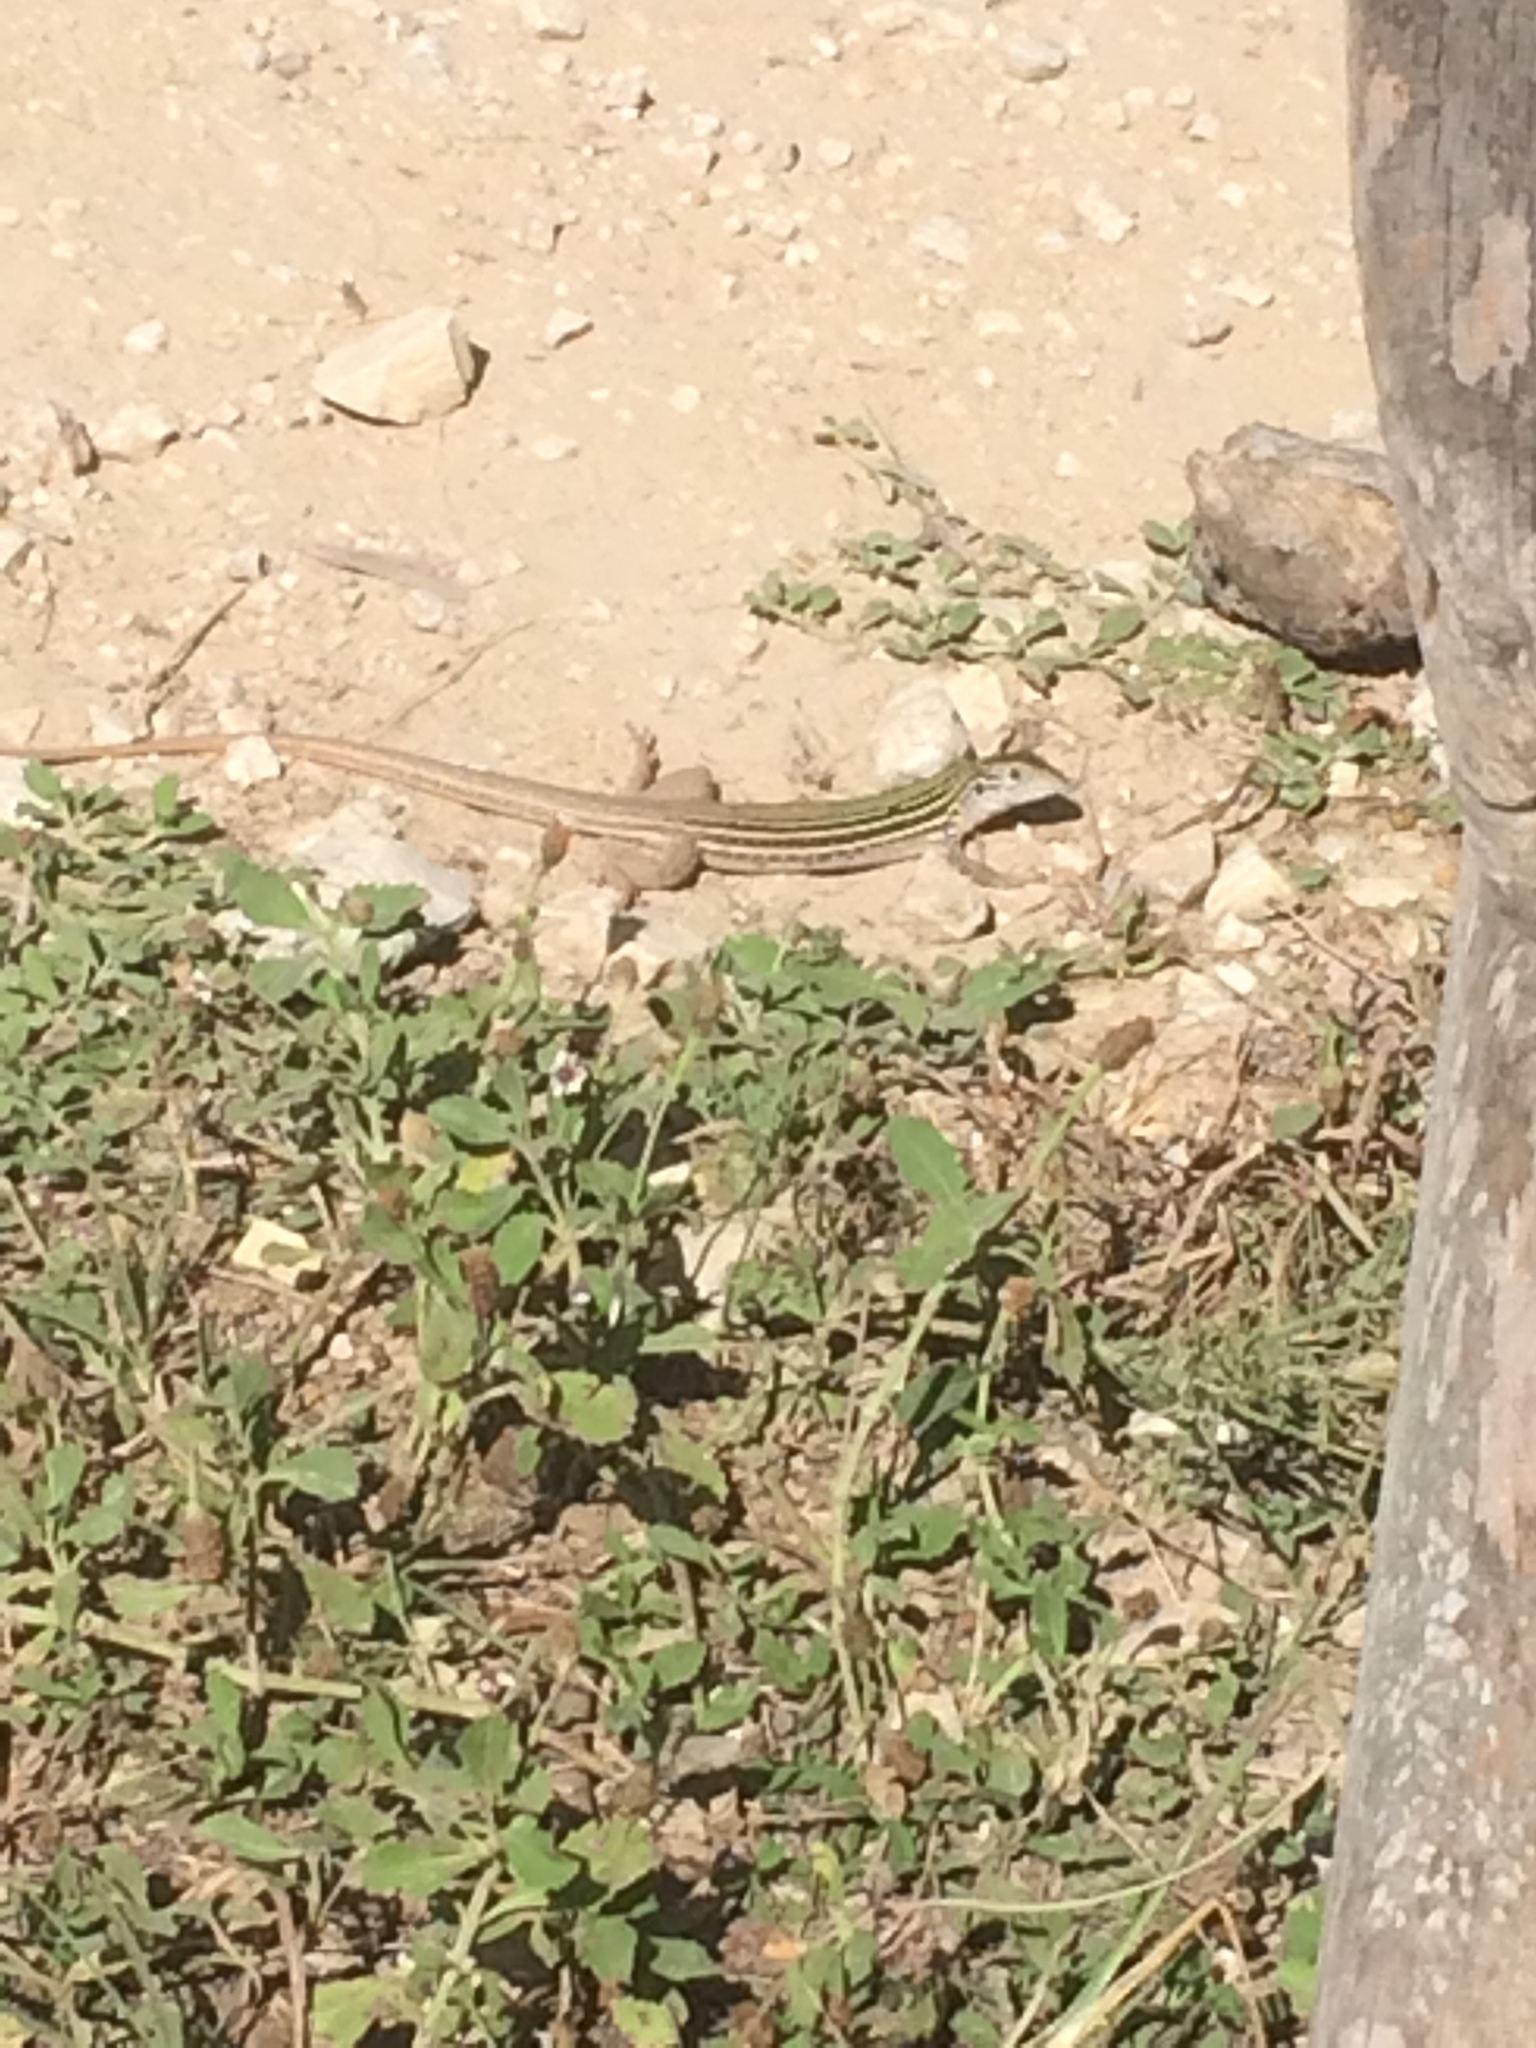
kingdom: Animalia
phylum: Chordata
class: Squamata
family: Teiidae
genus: Aspidoscelis
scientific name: Aspidoscelis gularis
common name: Eastern spotted whiptail
